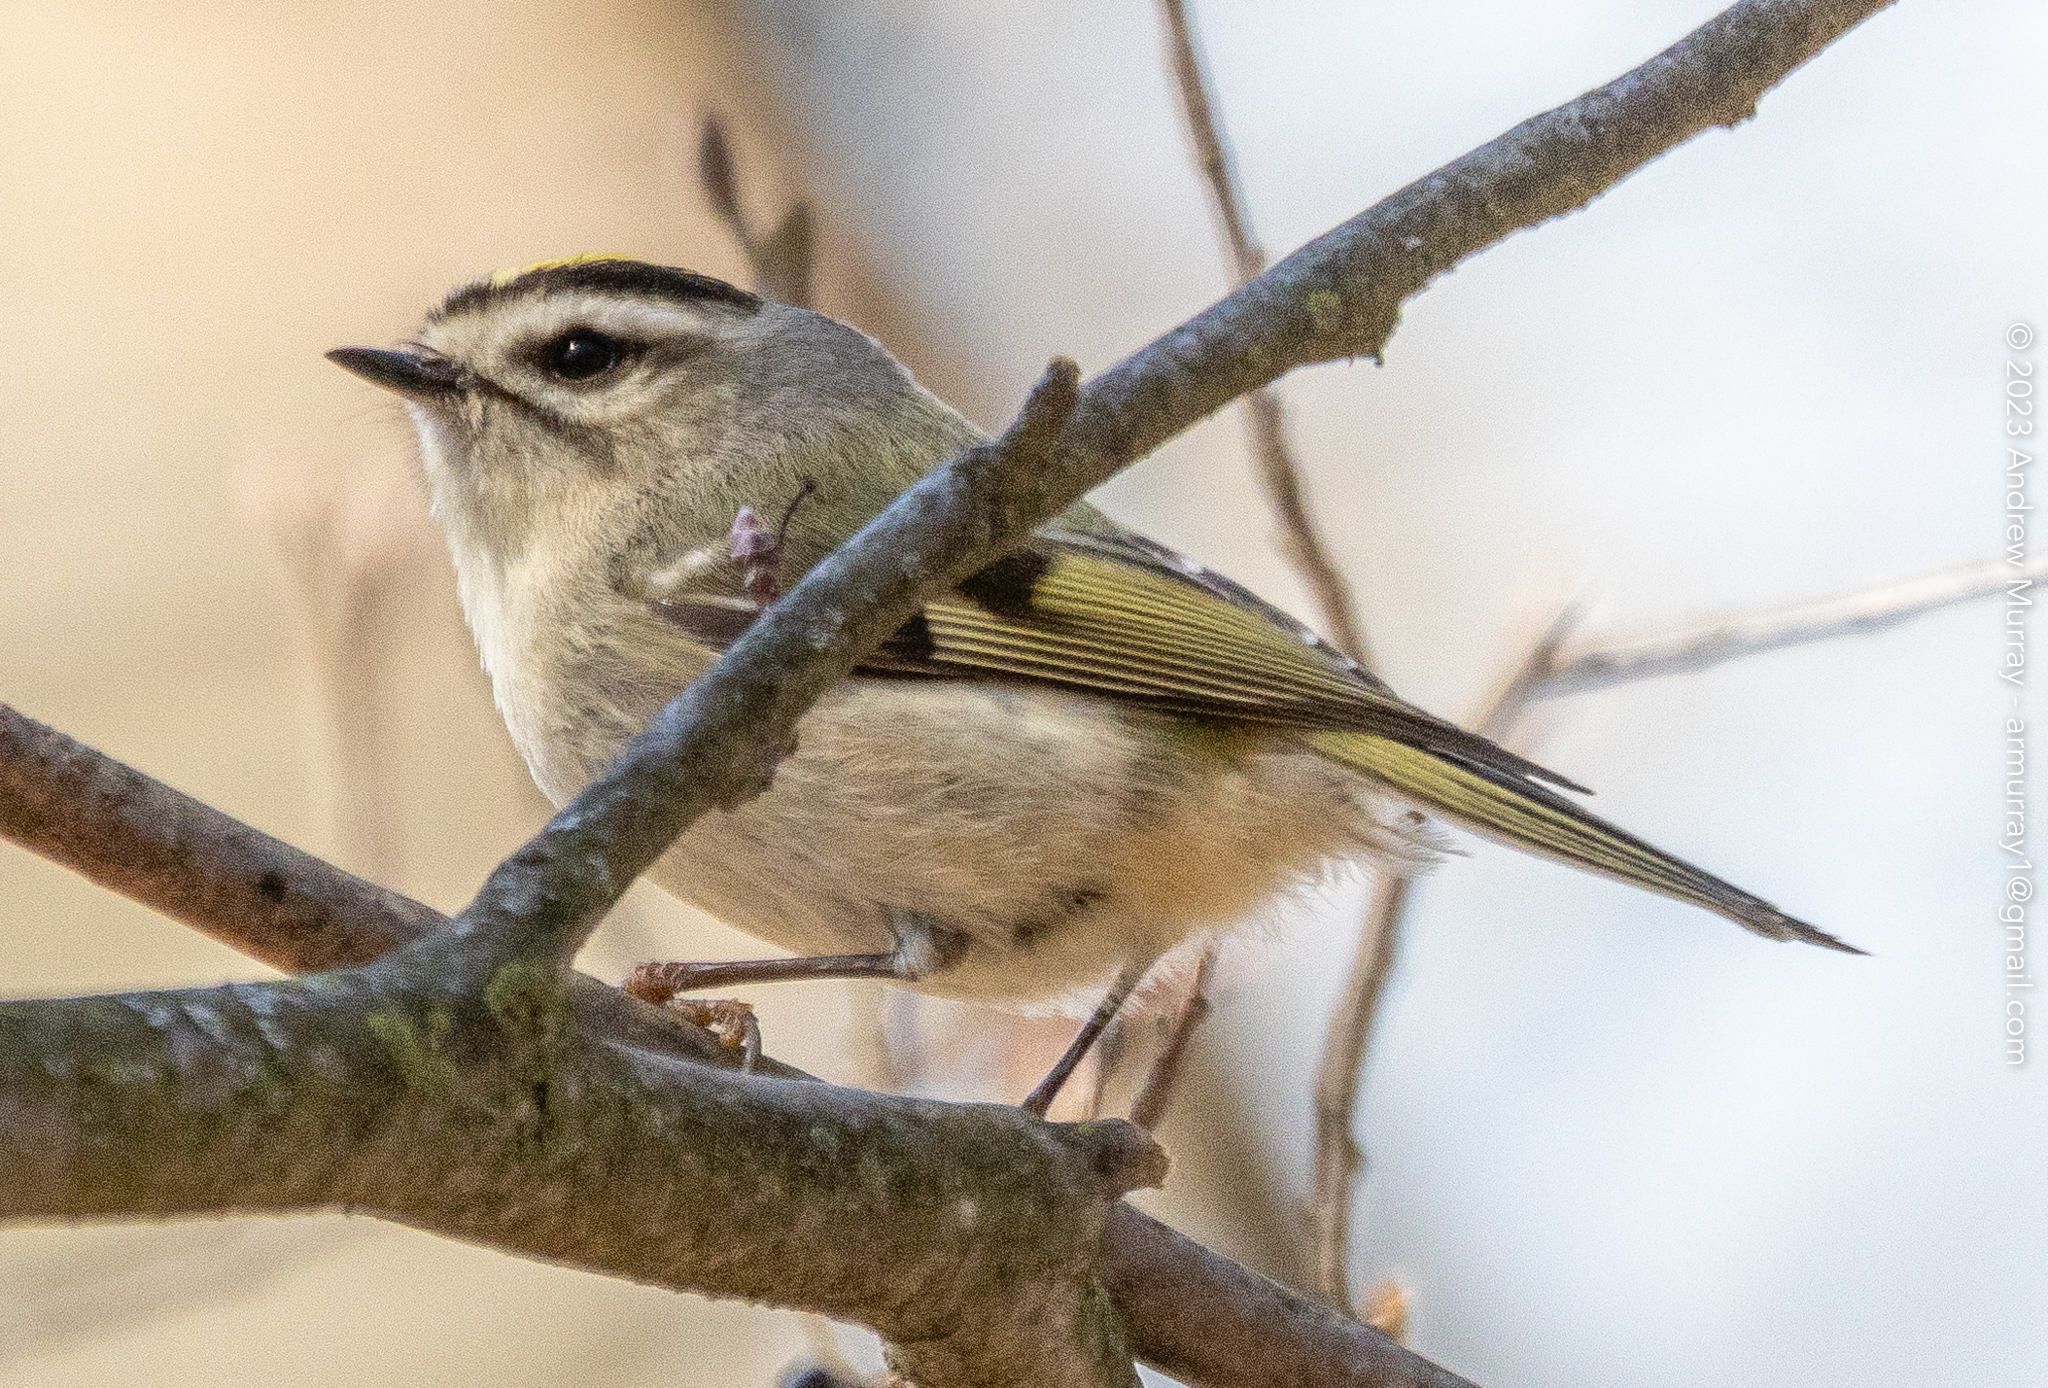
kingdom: Animalia
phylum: Chordata
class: Aves
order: Passeriformes
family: Regulidae
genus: Regulus
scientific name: Regulus satrapa
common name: Golden-crowned kinglet
